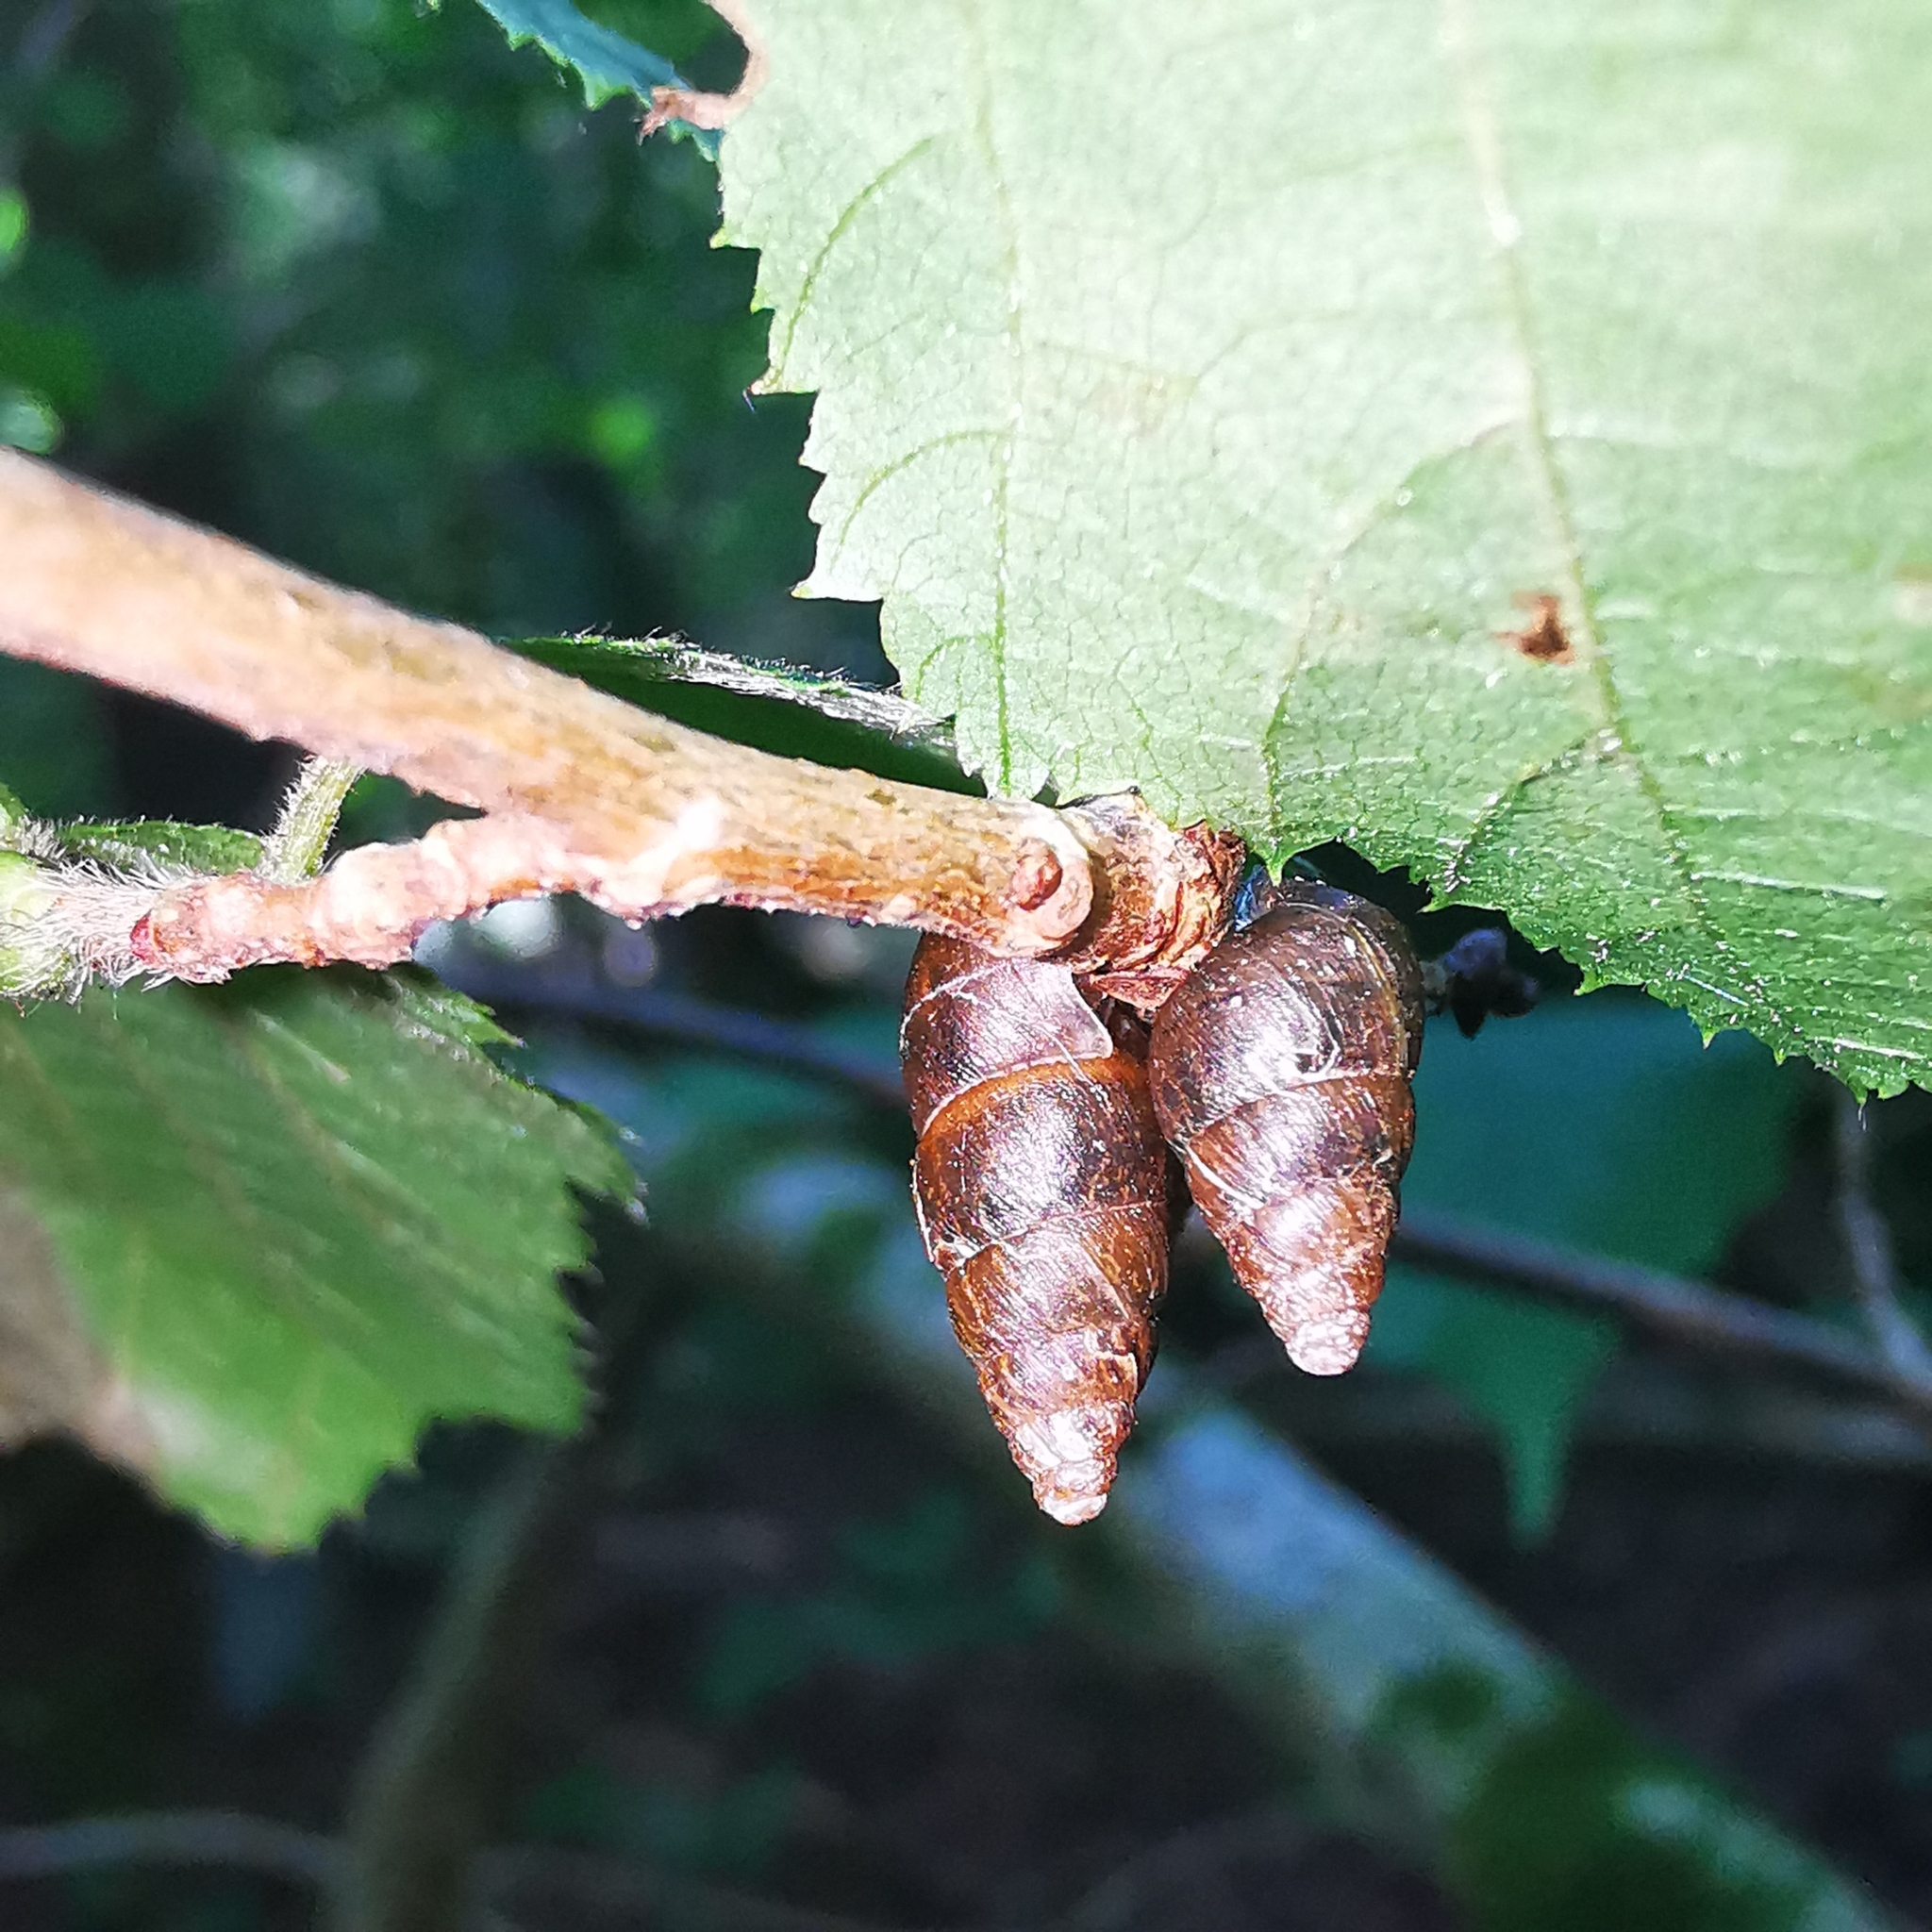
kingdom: Animalia
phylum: Mollusca
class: Gastropoda
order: Stylommatophora
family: Enidae
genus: Ena
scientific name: Ena montana
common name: Mountain bulin
